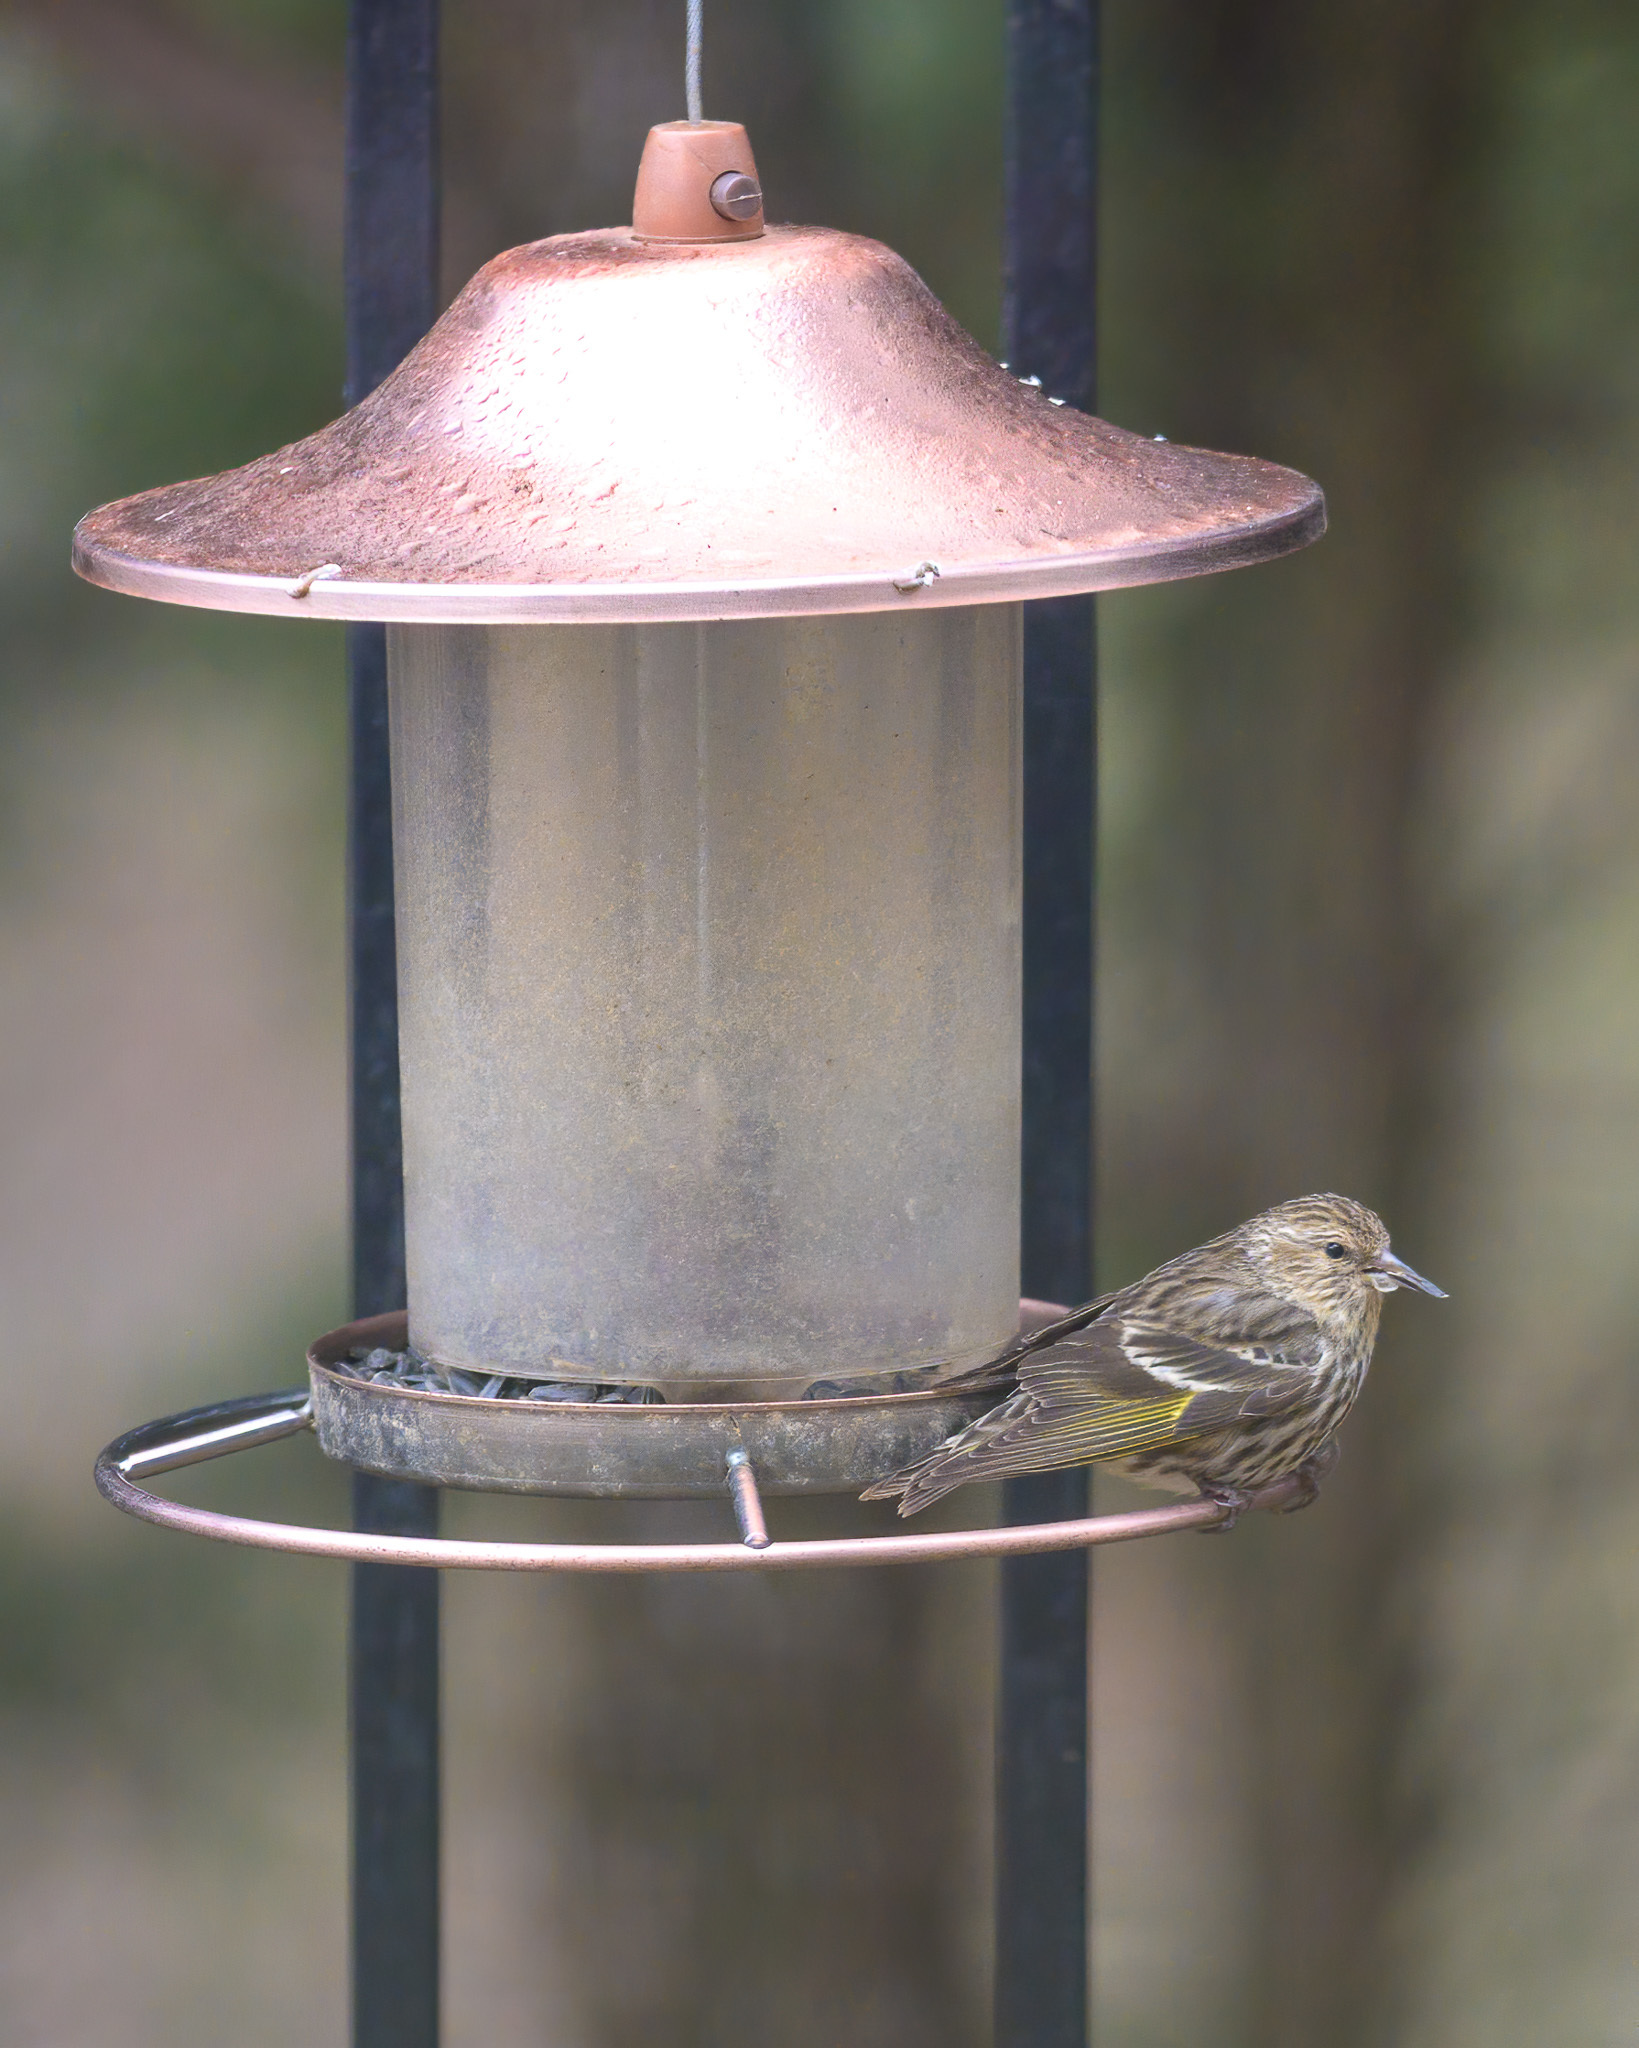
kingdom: Animalia
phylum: Chordata
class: Aves
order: Passeriformes
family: Fringillidae
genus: Spinus
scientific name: Spinus pinus
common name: Pine siskin
